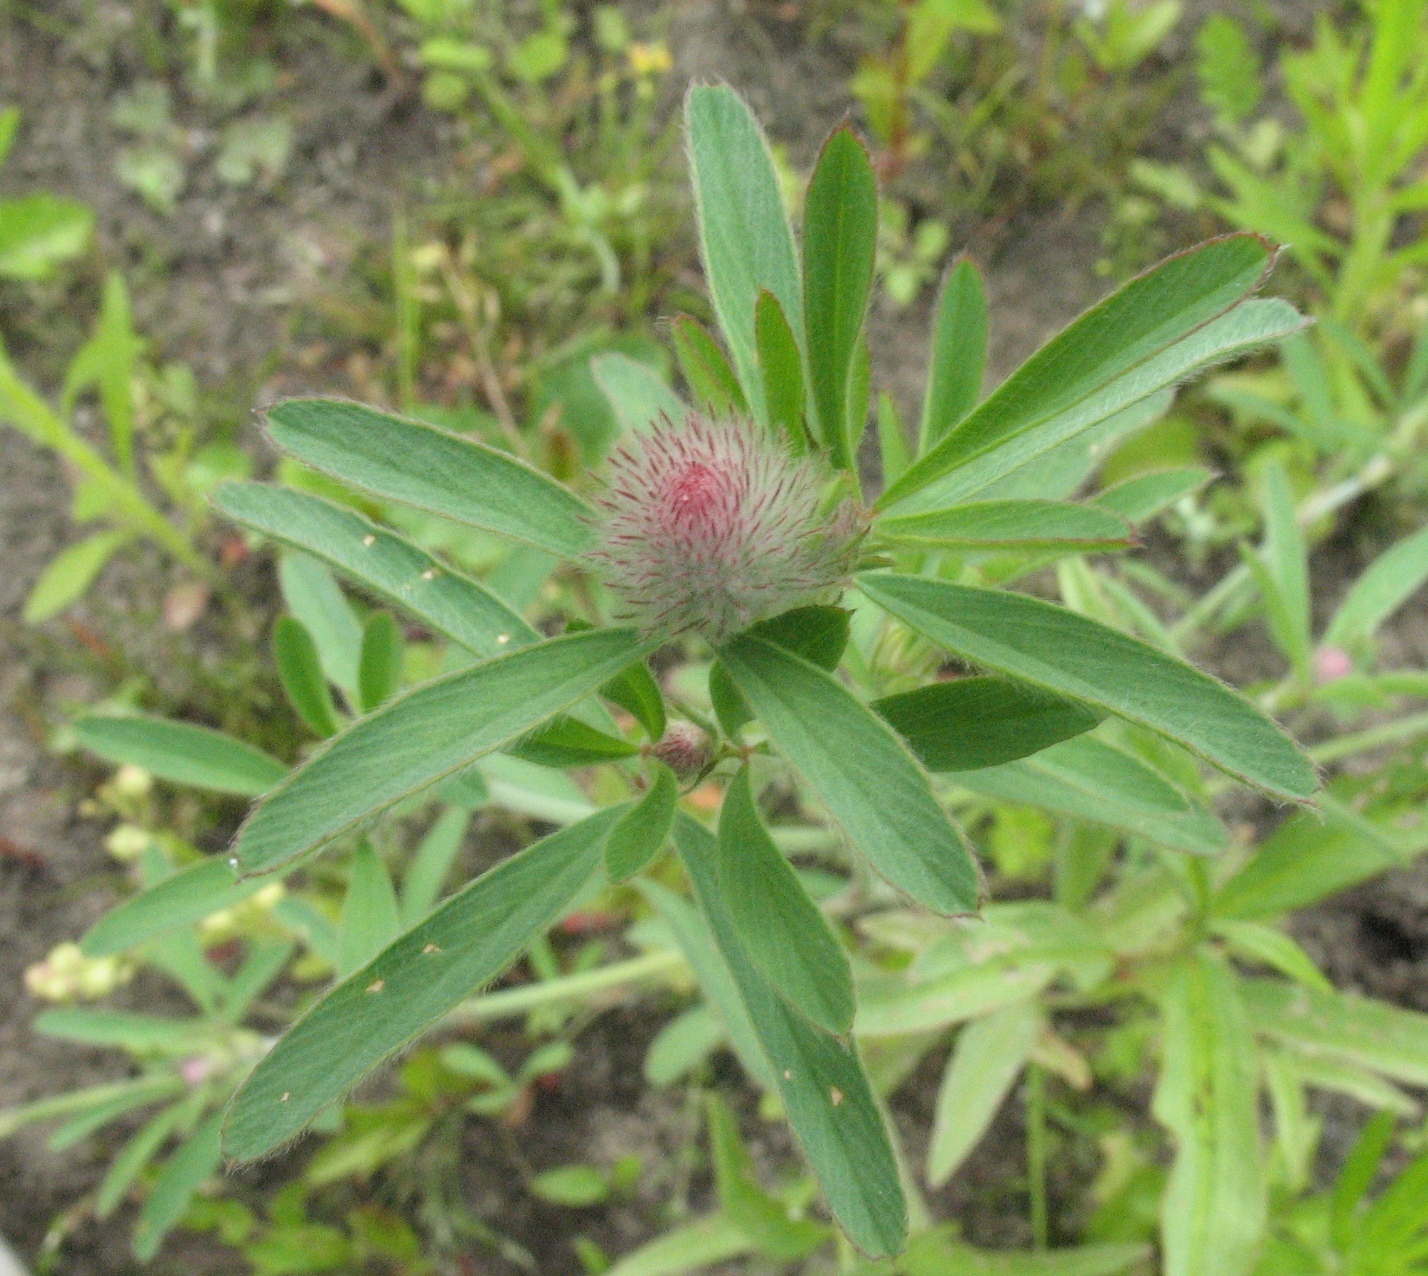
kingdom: Plantae
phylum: Tracheophyta
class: Magnoliopsida
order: Fabales
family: Fabaceae
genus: Trifolium
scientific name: Trifolium arvense
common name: Hare's-foot clover
